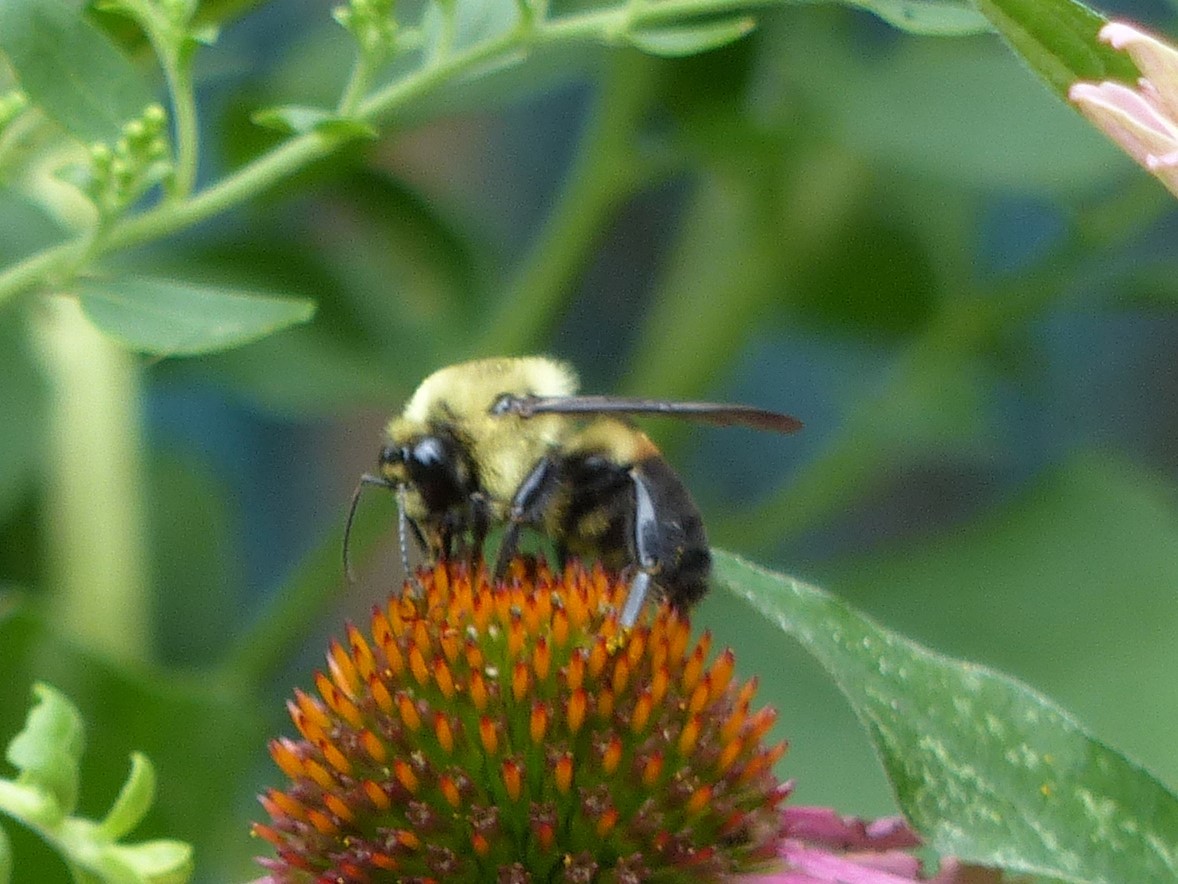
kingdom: Animalia
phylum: Arthropoda
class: Insecta
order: Hymenoptera
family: Apidae
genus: Bombus
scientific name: Bombus griseocollis
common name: Brown-belted bumble bee
